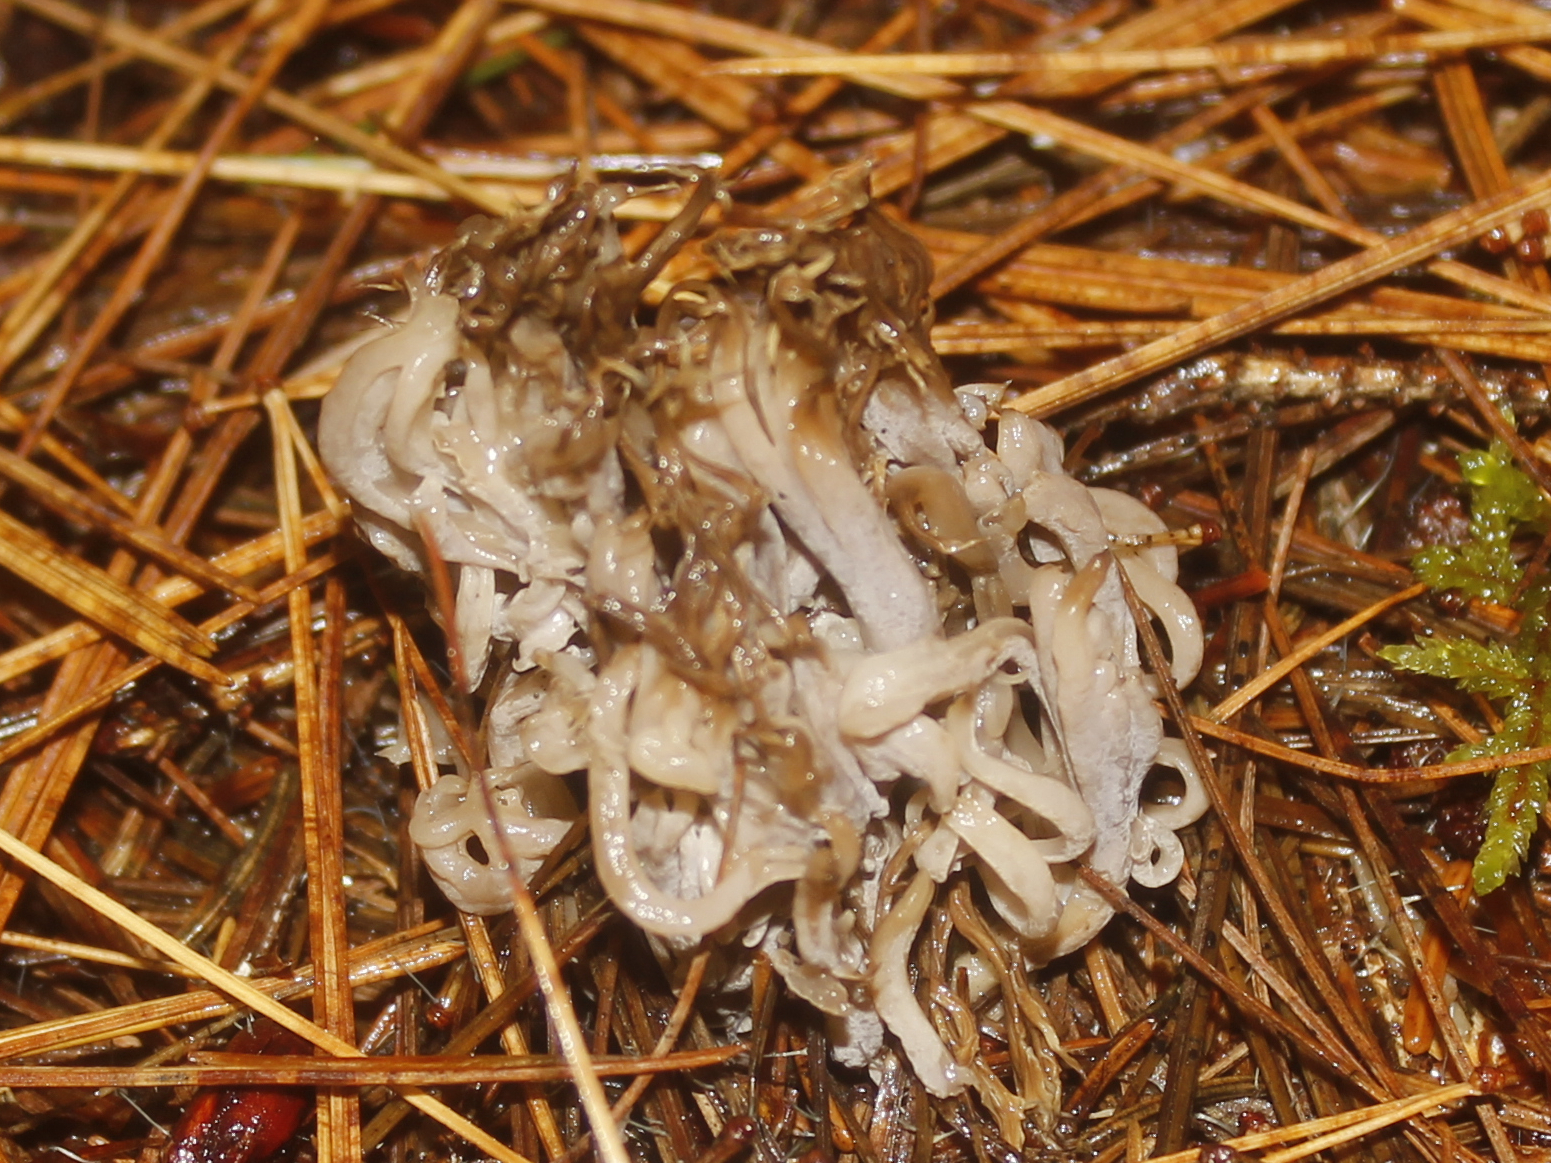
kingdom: Fungi
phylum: Basidiomycota
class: Agaricomycetes
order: Cantharellales
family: Hydnaceae
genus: Clavulina
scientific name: Clavulina coralloides
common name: Crested coral
